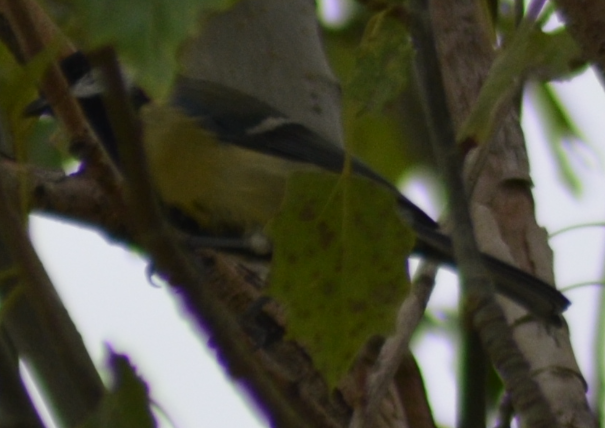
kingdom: Animalia
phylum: Chordata
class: Aves
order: Passeriformes
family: Paridae
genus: Parus
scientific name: Parus major
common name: Great tit
